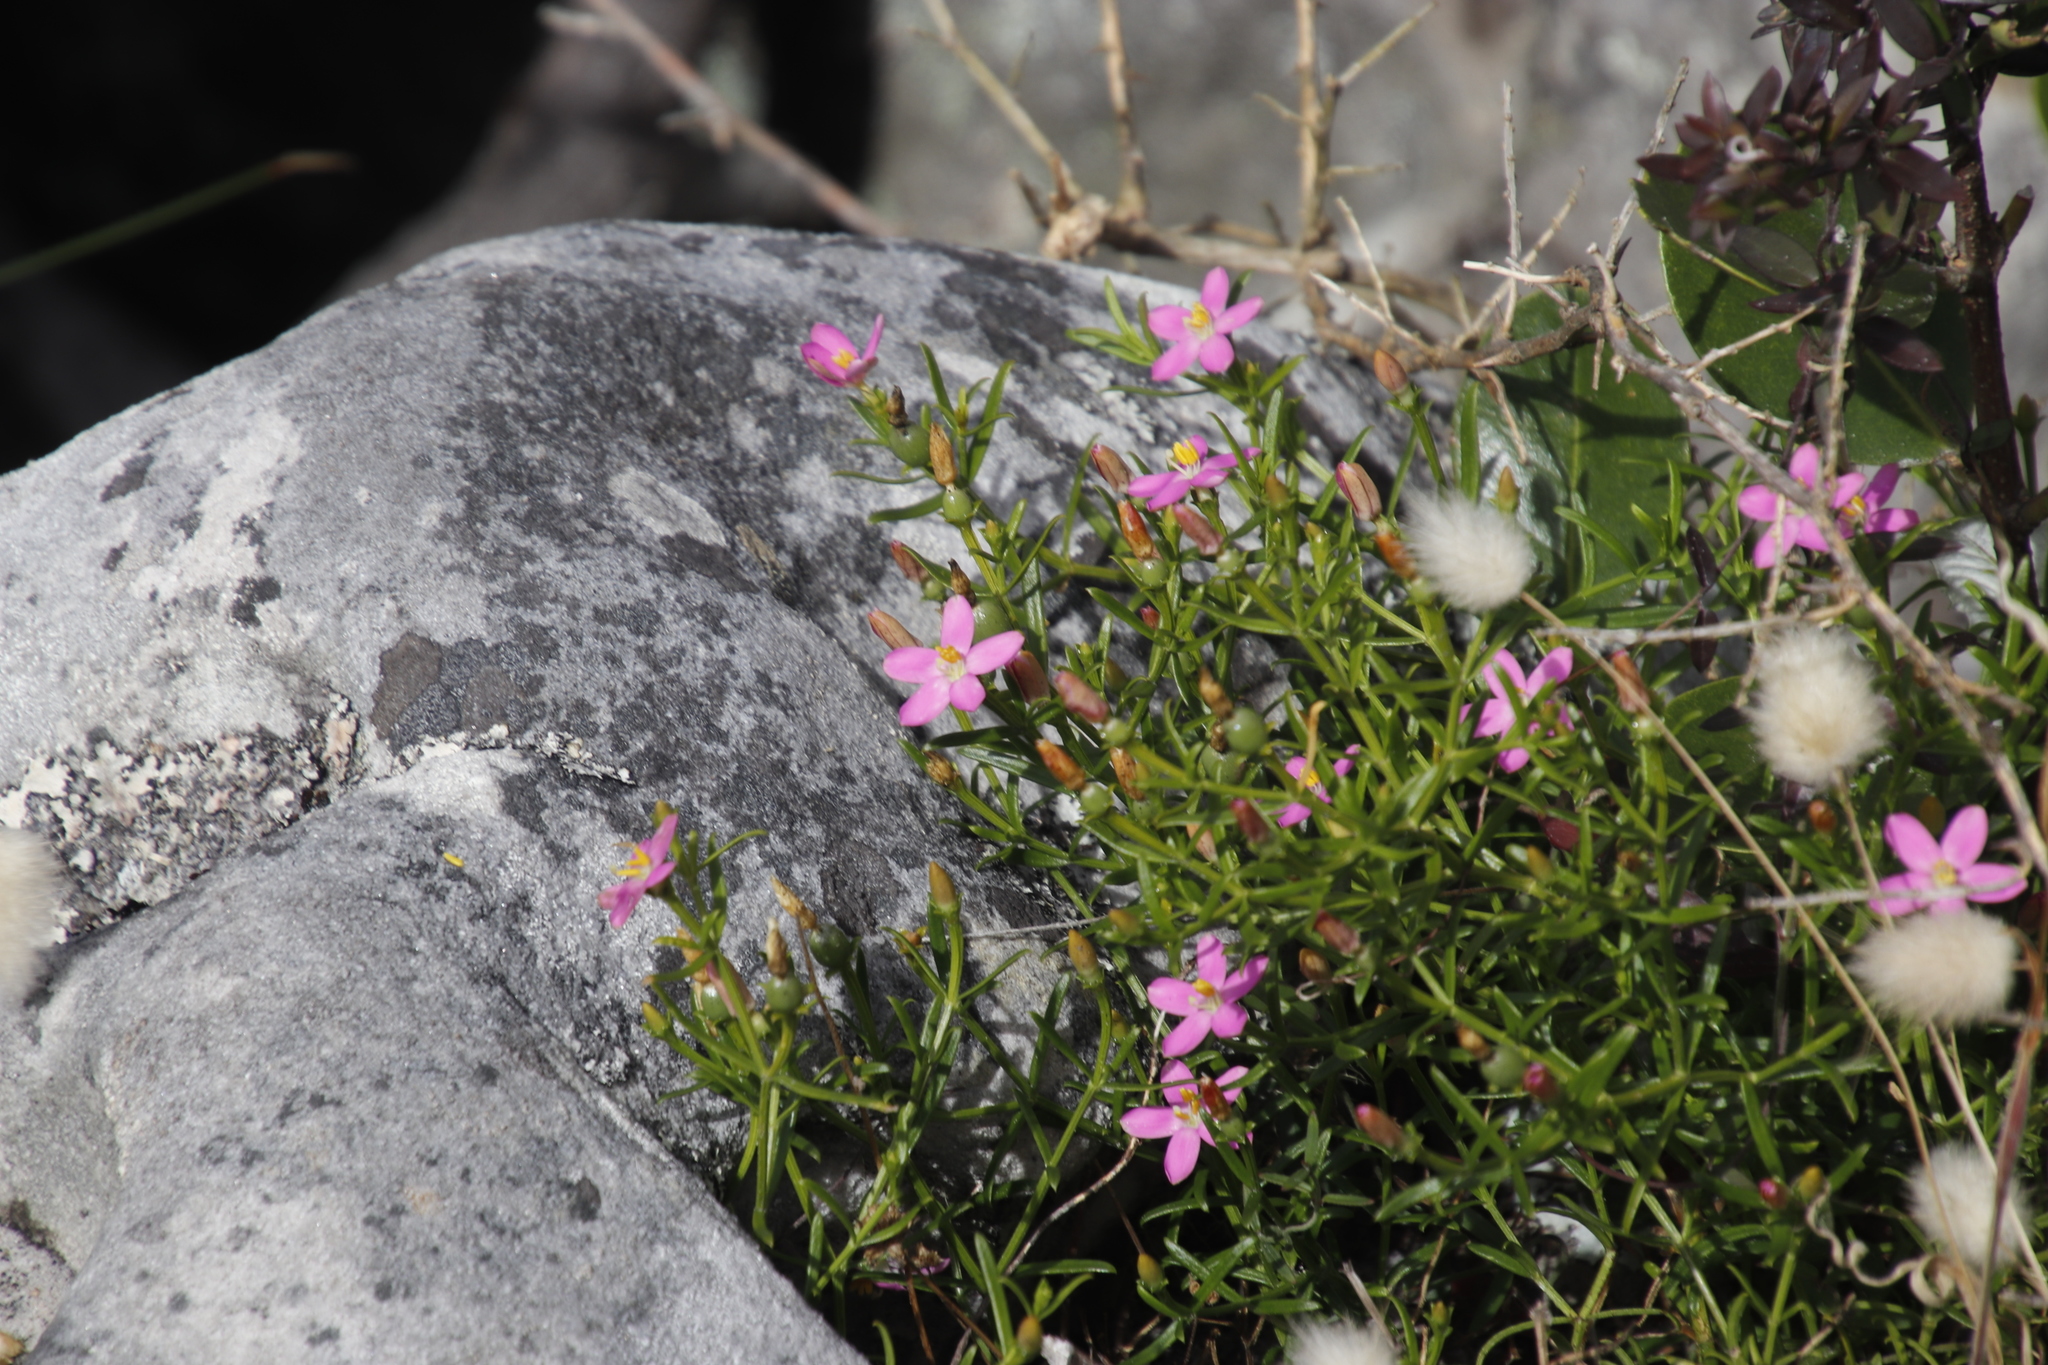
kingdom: Plantae
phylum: Tracheophyta
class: Magnoliopsida
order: Gentianales
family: Gentianaceae
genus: Chironia
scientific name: Chironia baccifera
